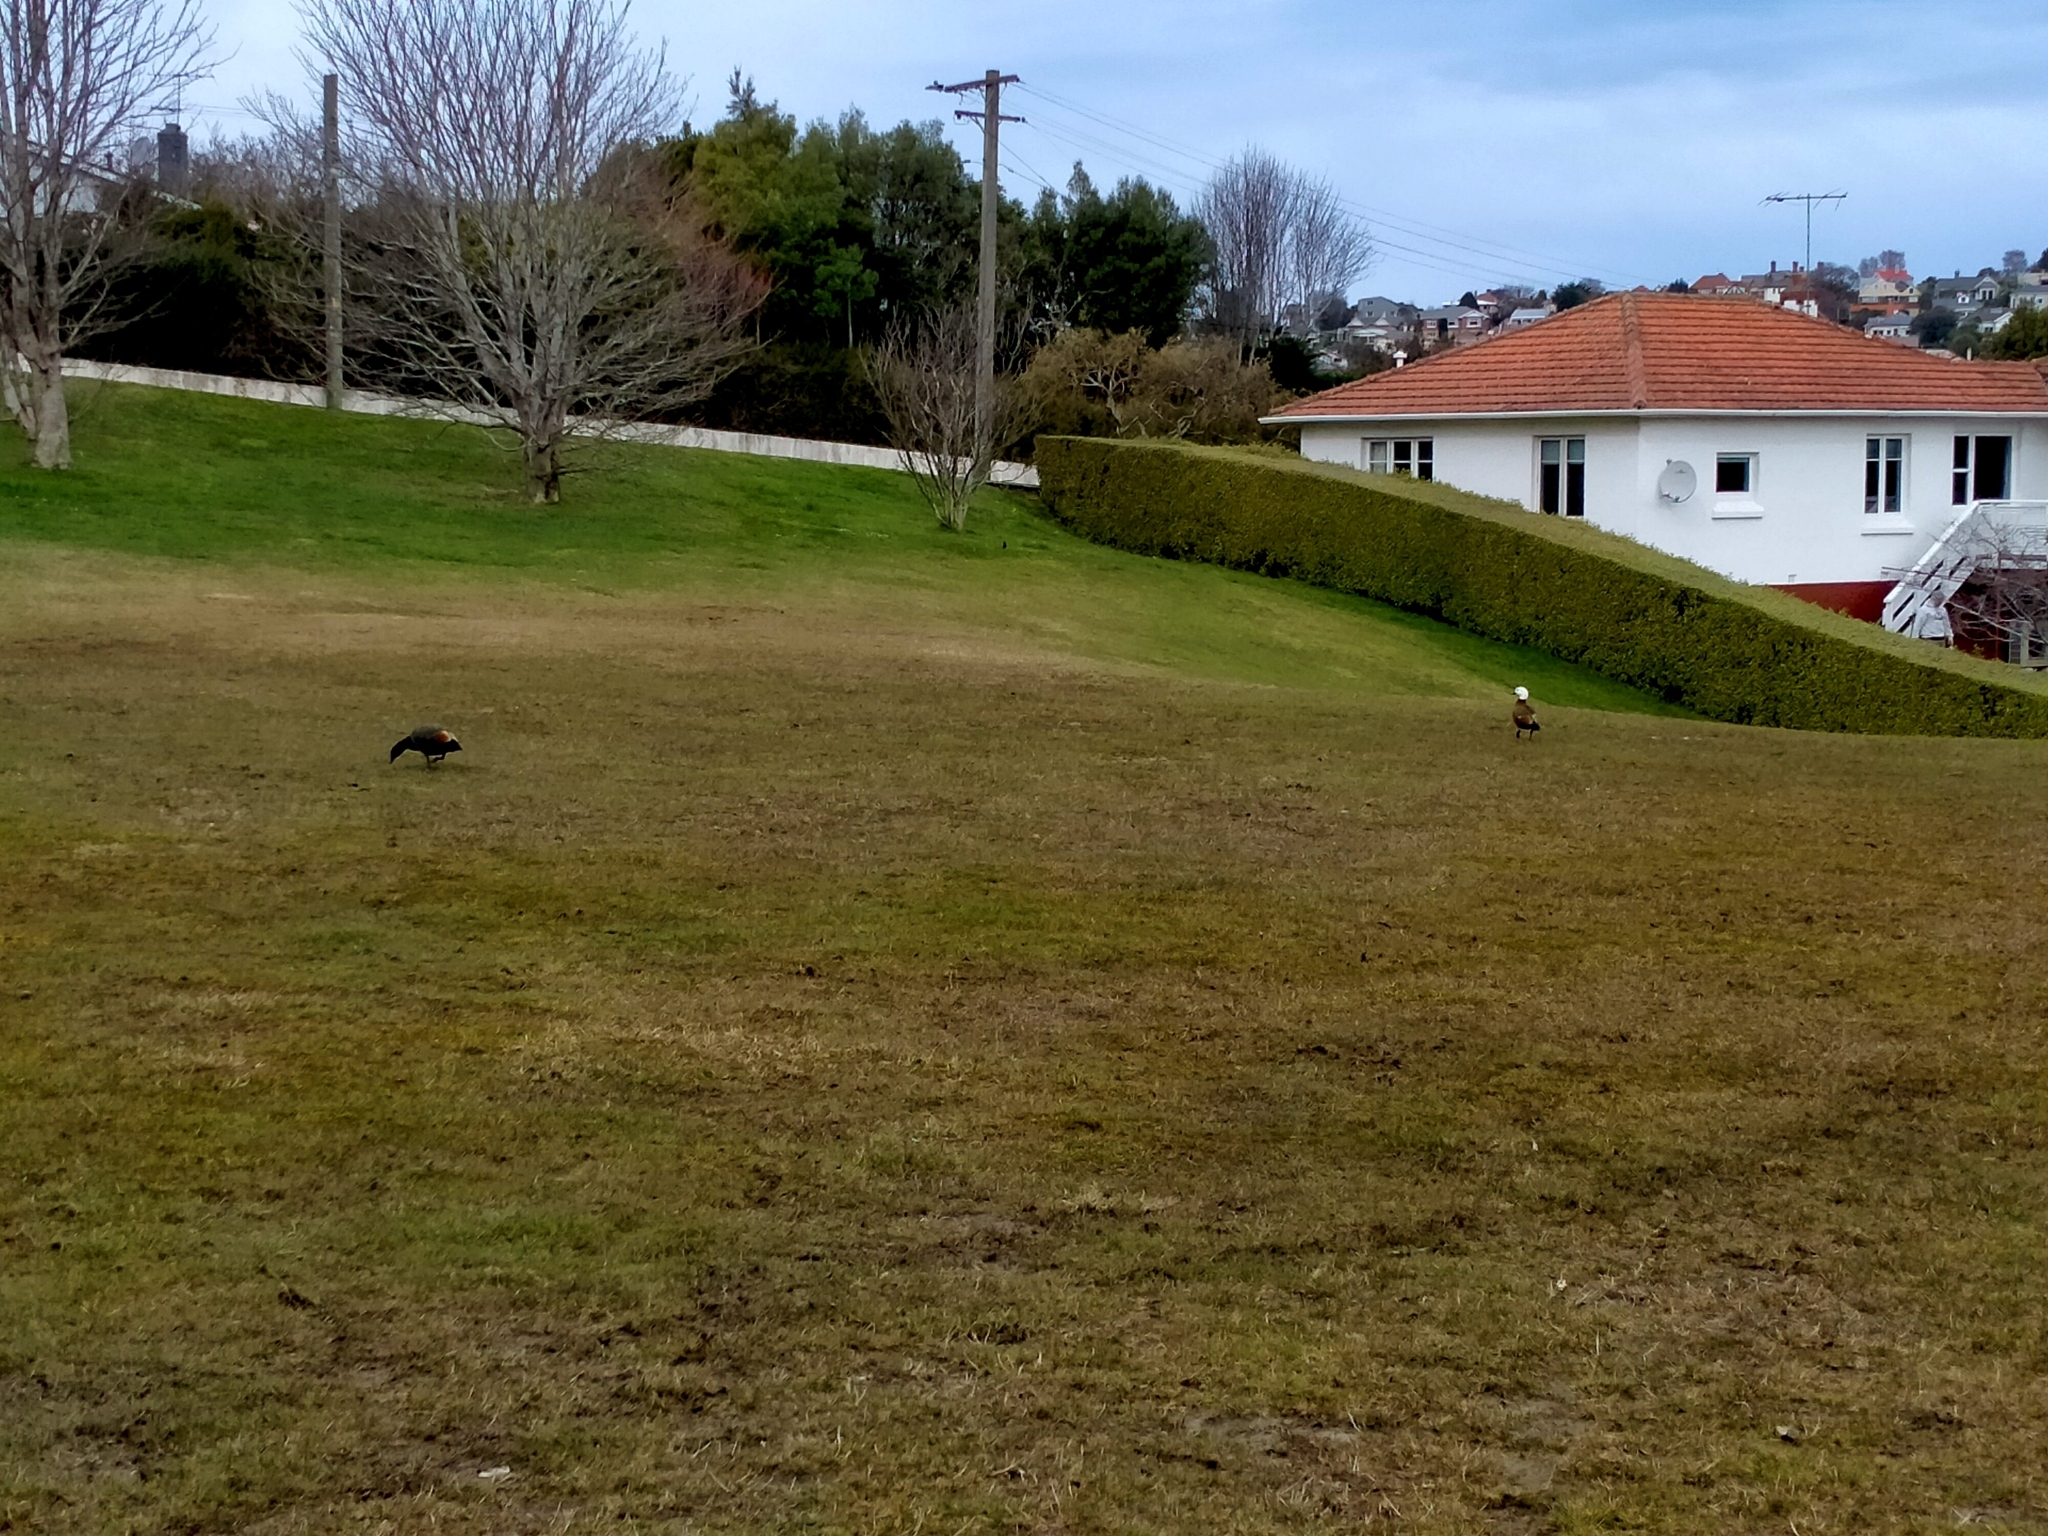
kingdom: Animalia
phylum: Chordata
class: Aves
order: Anseriformes
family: Anatidae
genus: Tadorna
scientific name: Tadorna variegata
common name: Paradise shelduck
